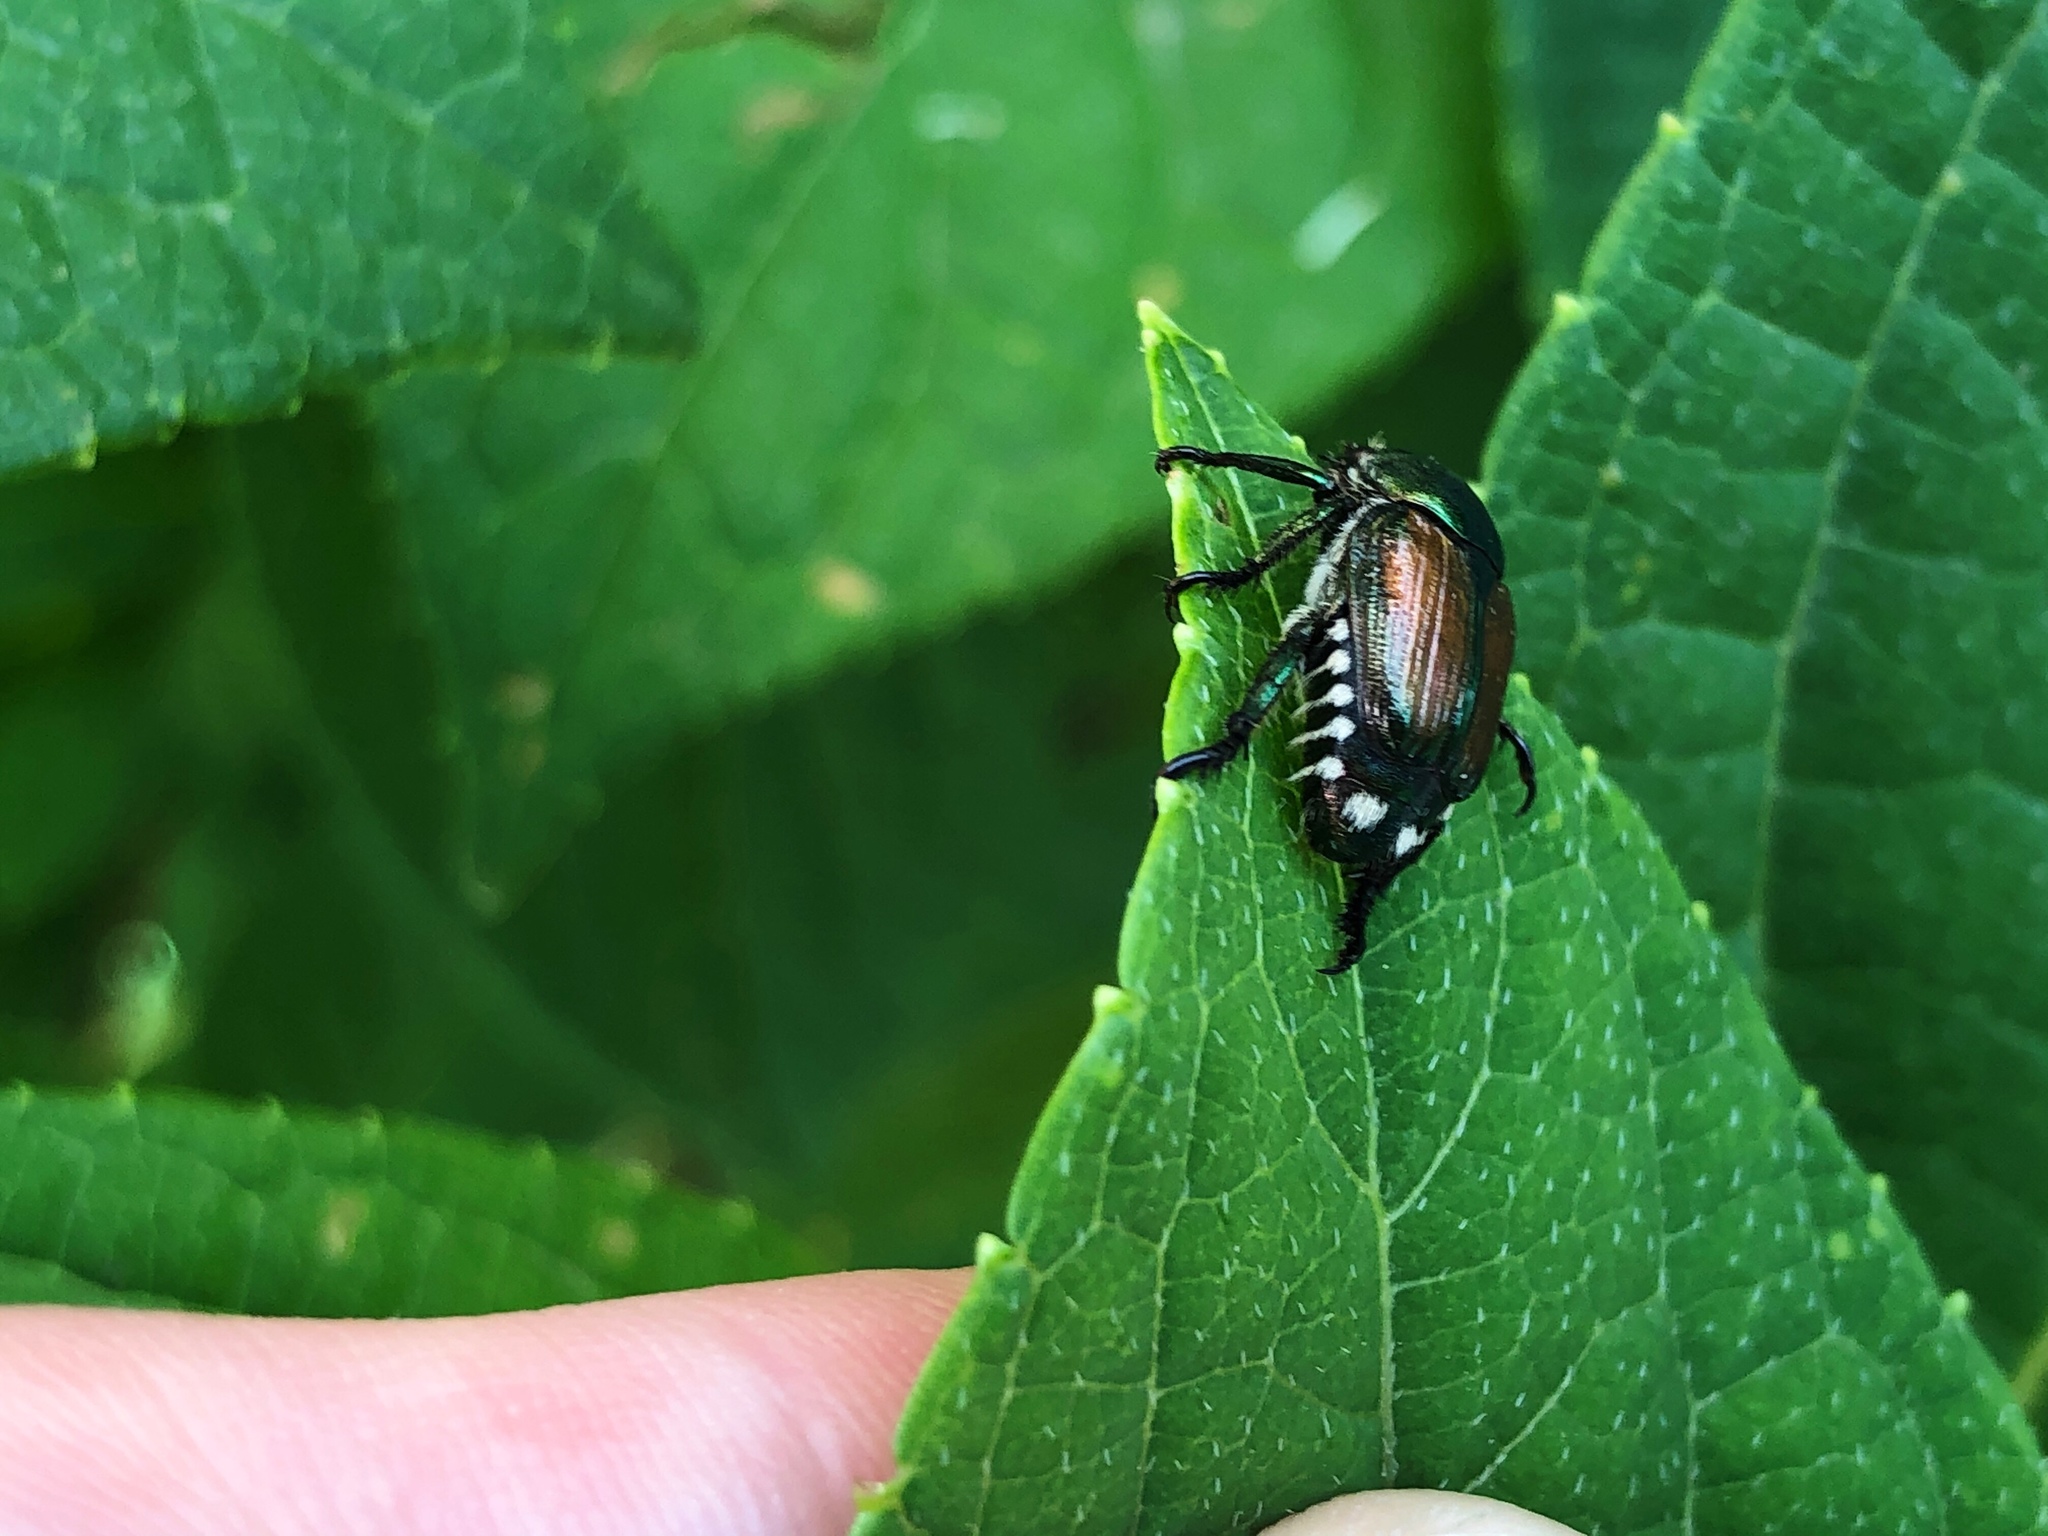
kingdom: Animalia
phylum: Arthropoda
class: Insecta
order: Coleoptera
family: Scarabaeidae
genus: Popillia
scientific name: Popillia japonica
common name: Japanese beetle
